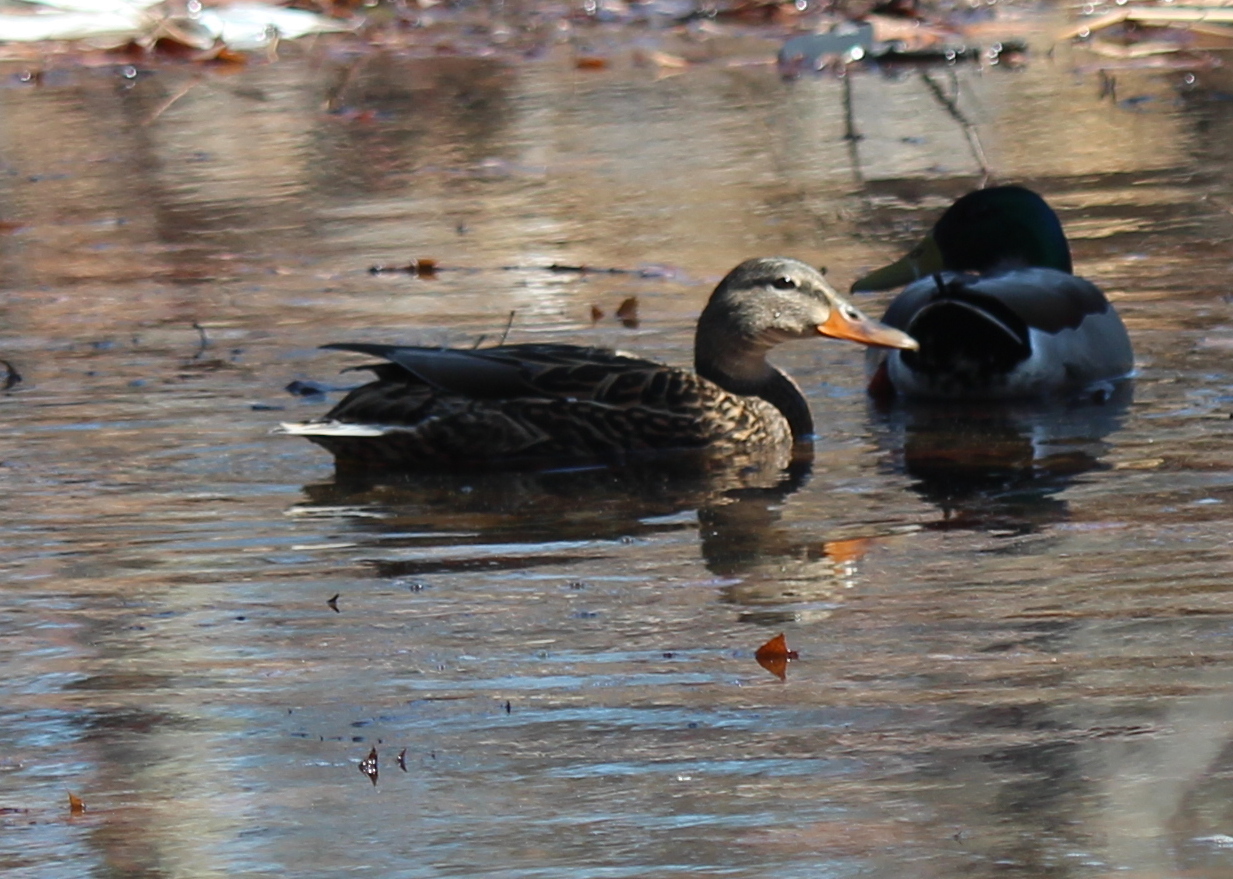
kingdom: Animalia
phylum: Chordata
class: Aves
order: Anseriformes
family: Anatidae
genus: Anas
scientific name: Anas platyrhynchos
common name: Mallard
